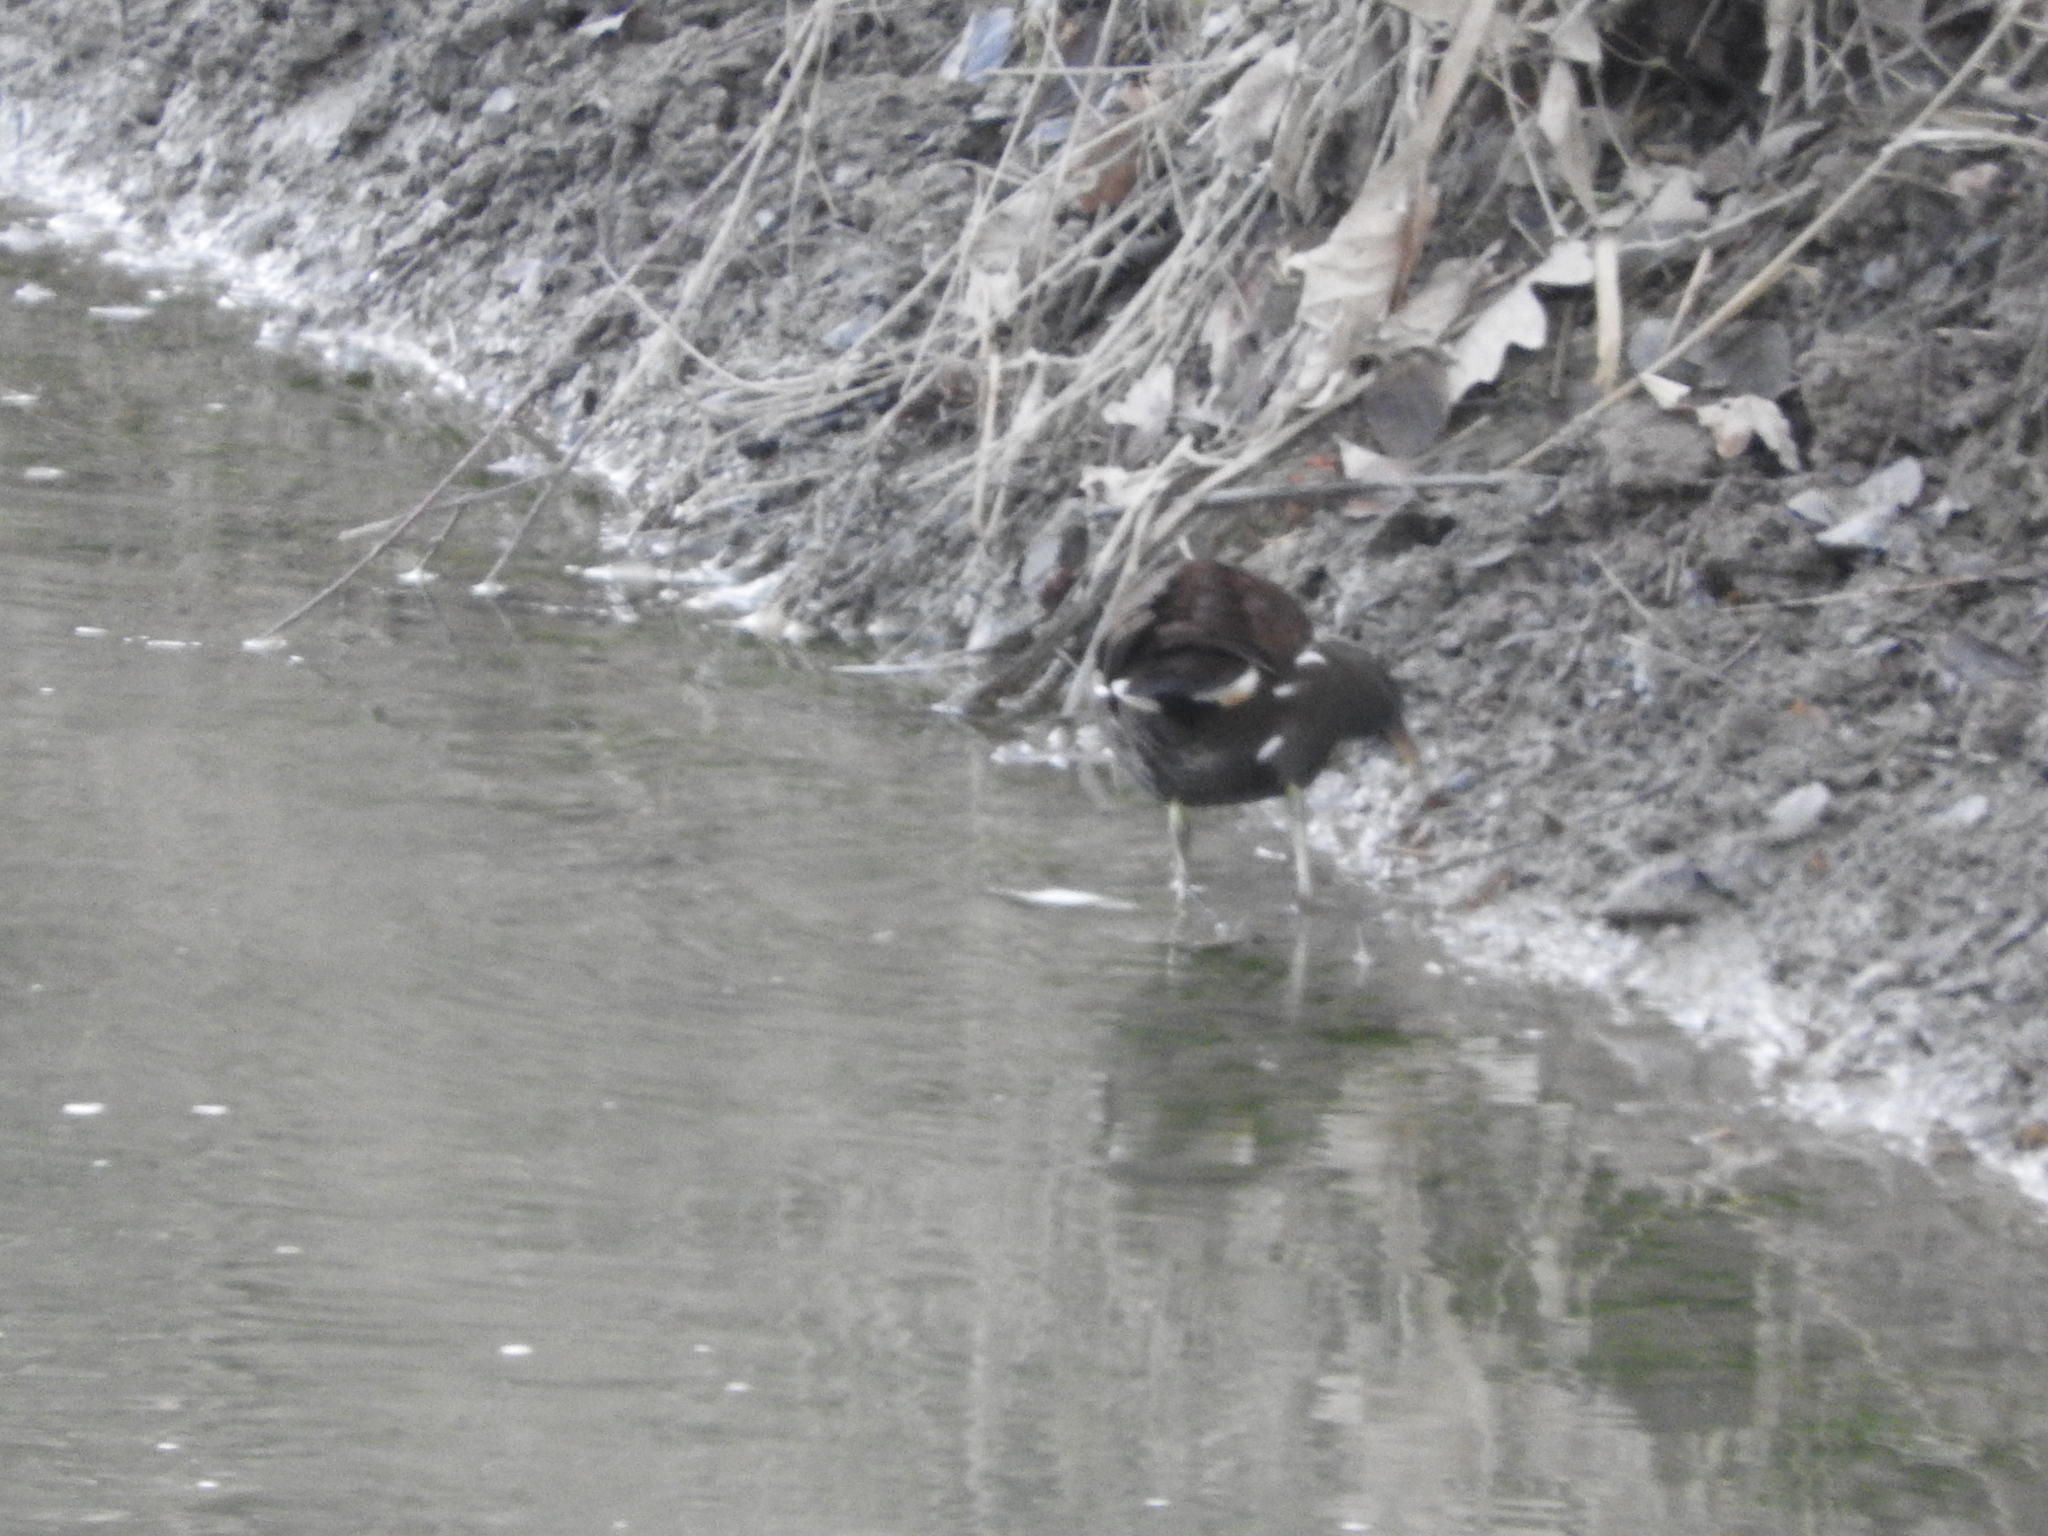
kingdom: Animalia
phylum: Chordata
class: Aves
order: Gruiformes
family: Rallidae
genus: Gallinula
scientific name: Gallinula chloropus
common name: Common moorhen
